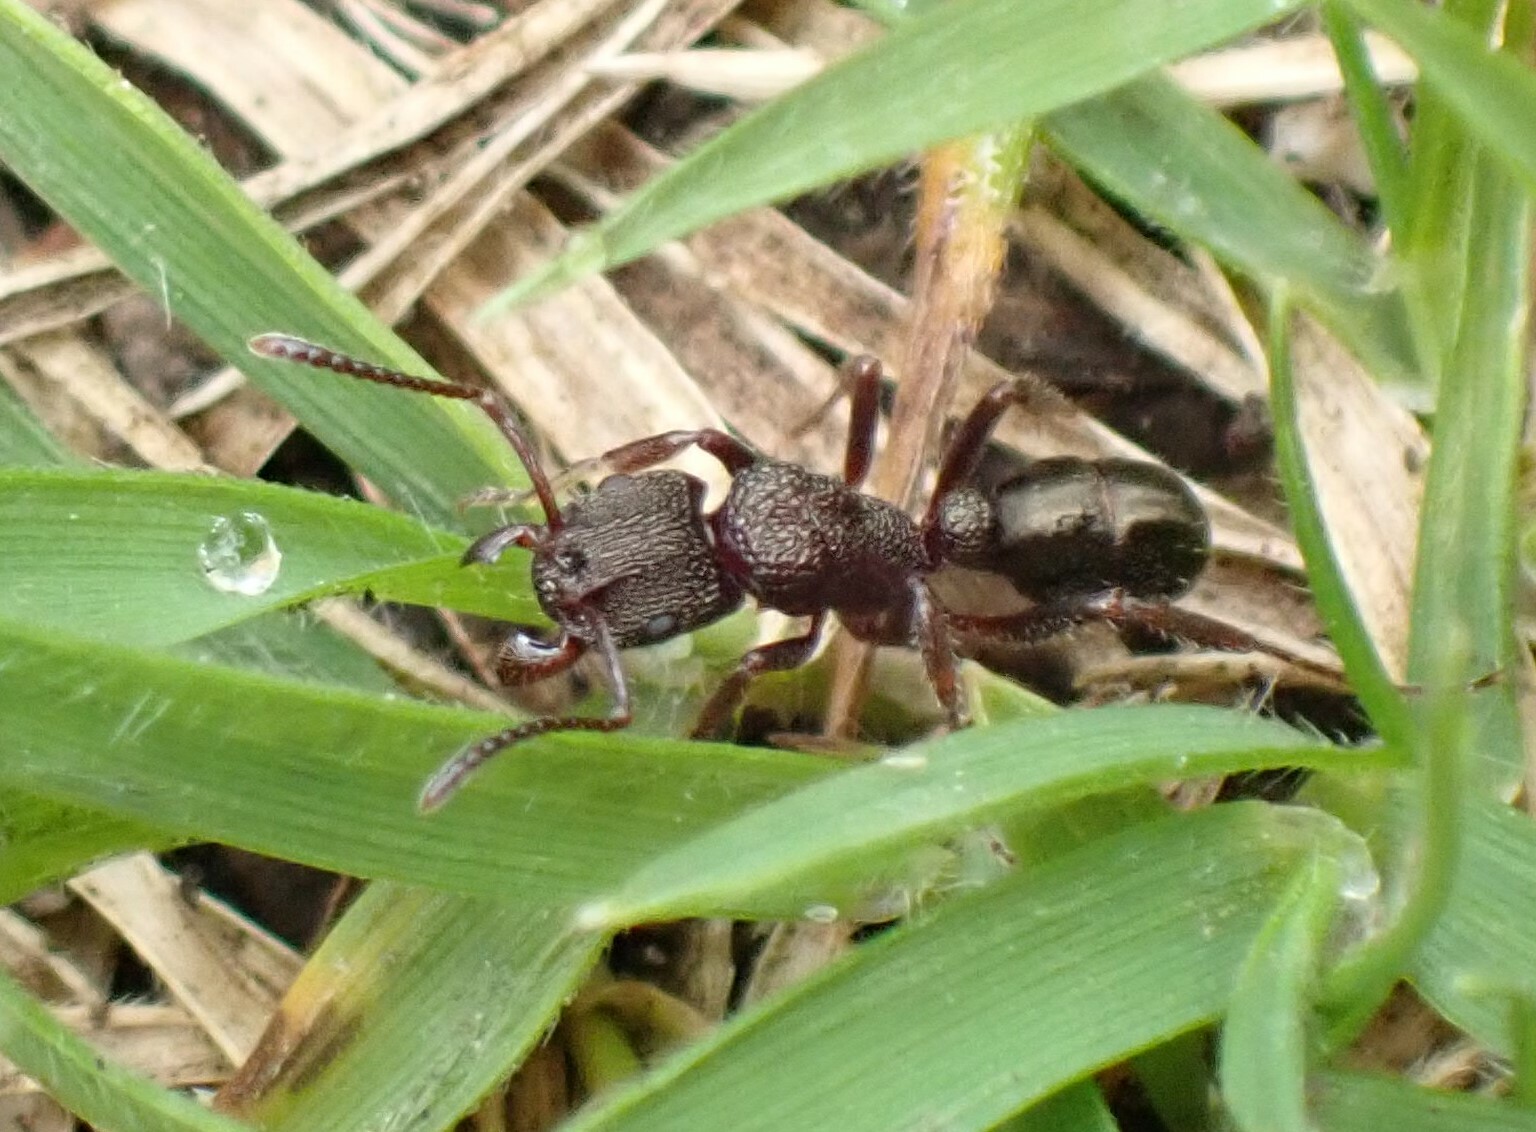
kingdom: Animalia
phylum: Arthropoda
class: Insecta
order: Hymenoptera
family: Formicidae
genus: Rhytidoponera
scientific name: Rhytidoponera tasmaniensis
